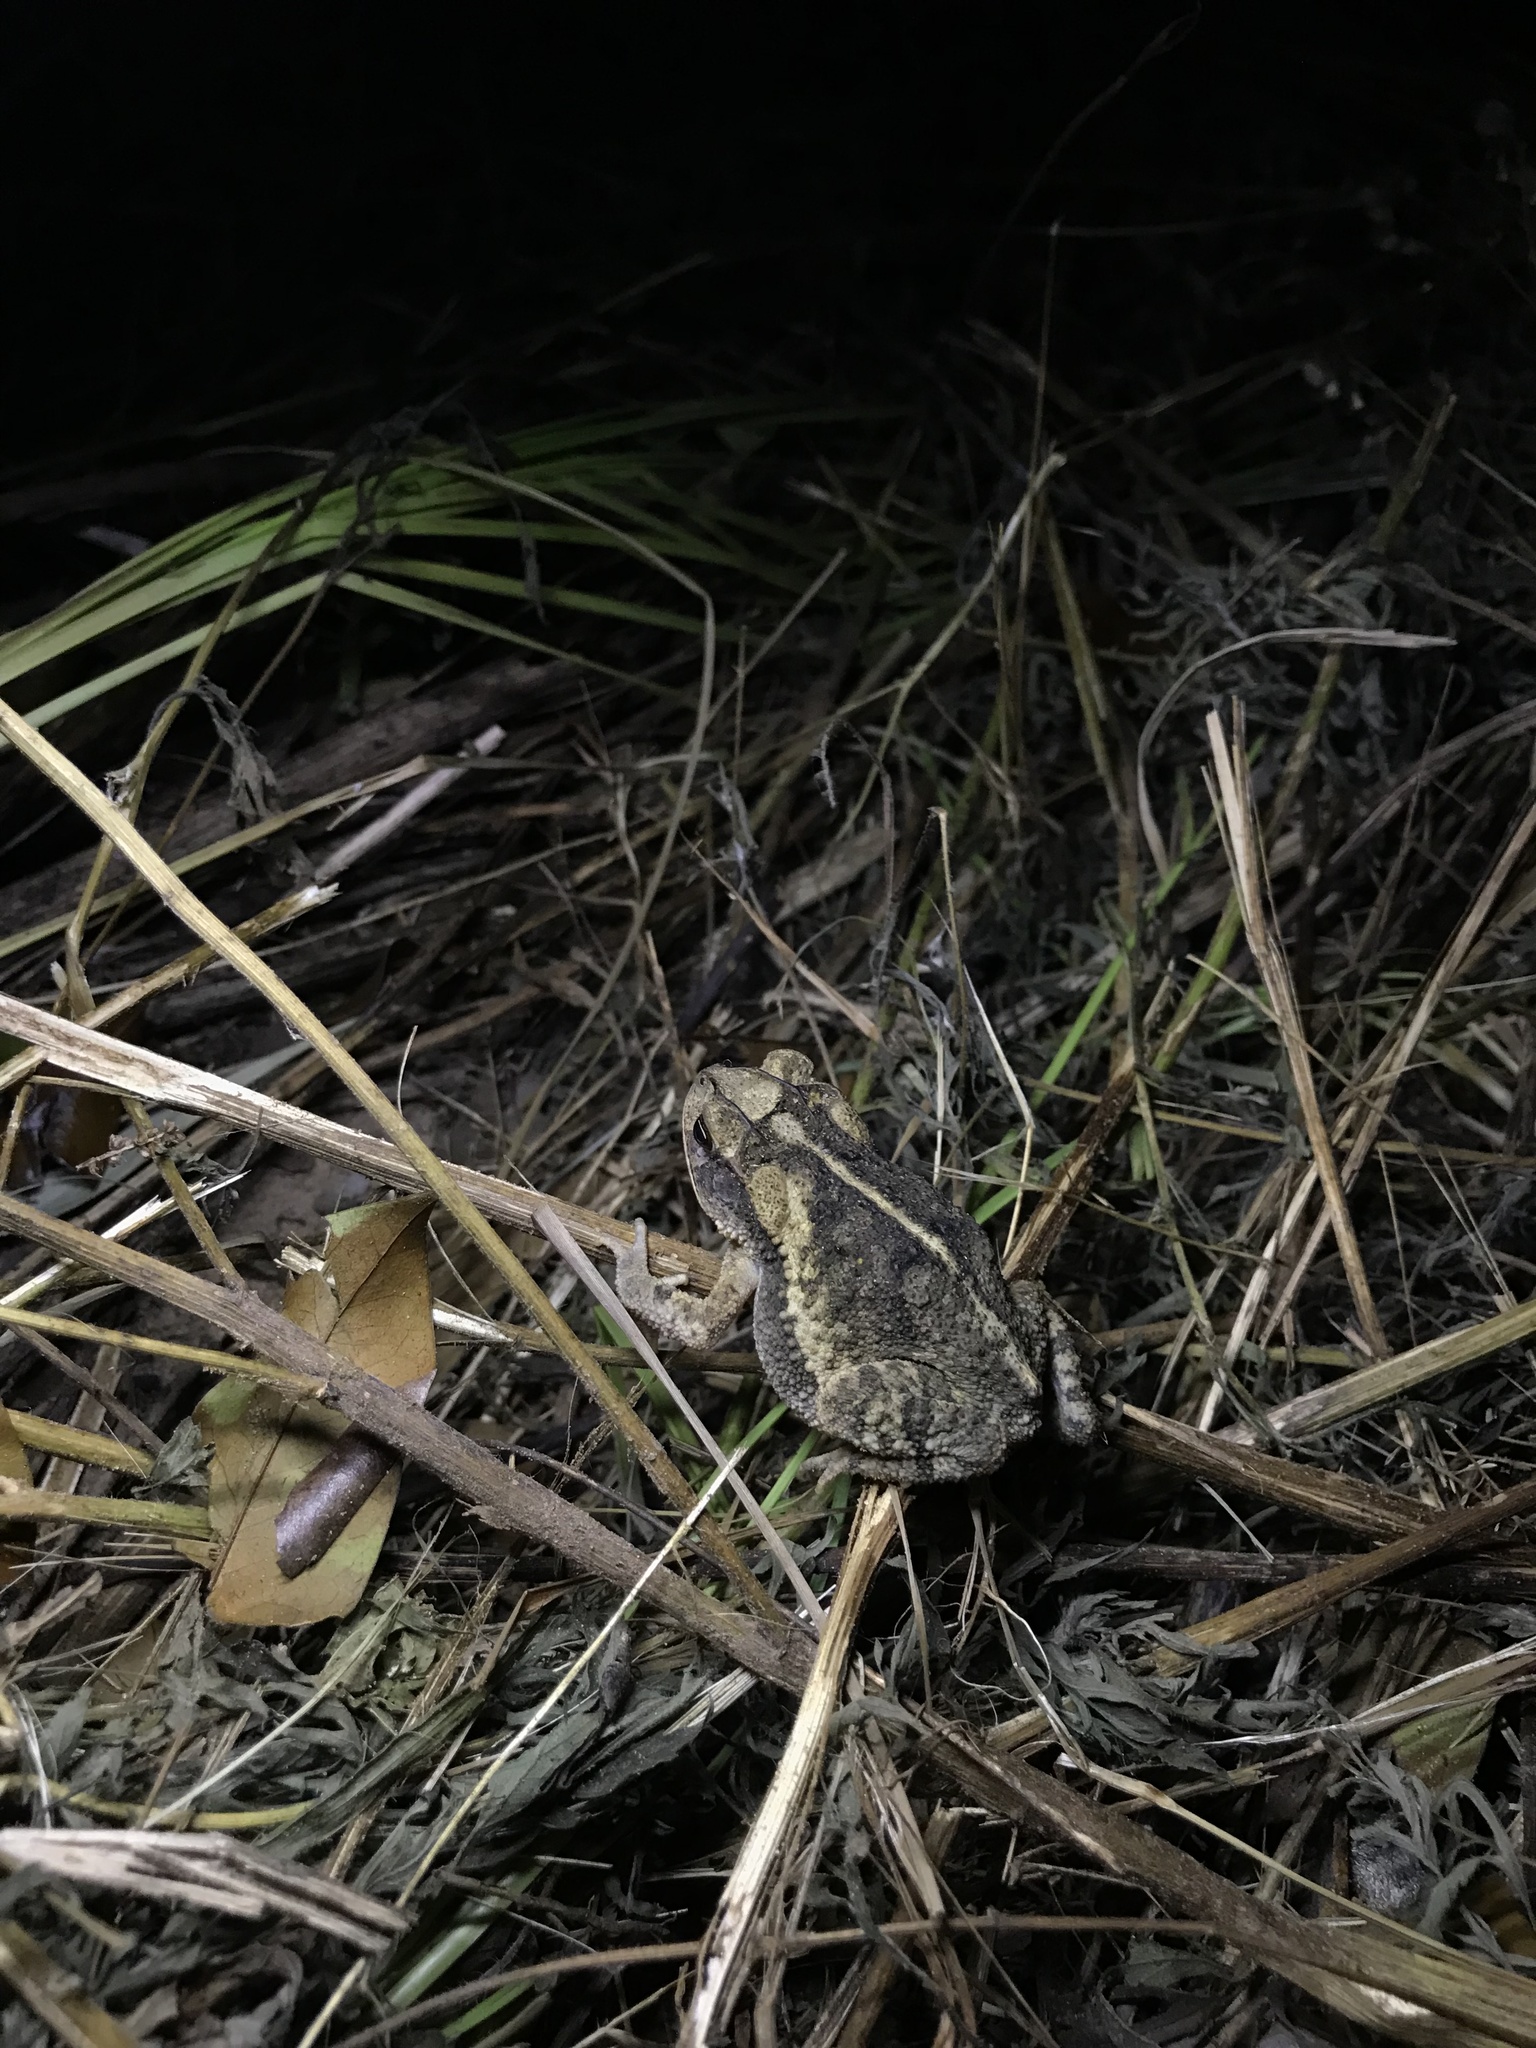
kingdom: Animalia
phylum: Chordata
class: Amphibia
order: Anura
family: Bufonidae
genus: Incilius
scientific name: Incilius nebulifer
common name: Gulf coast toad
